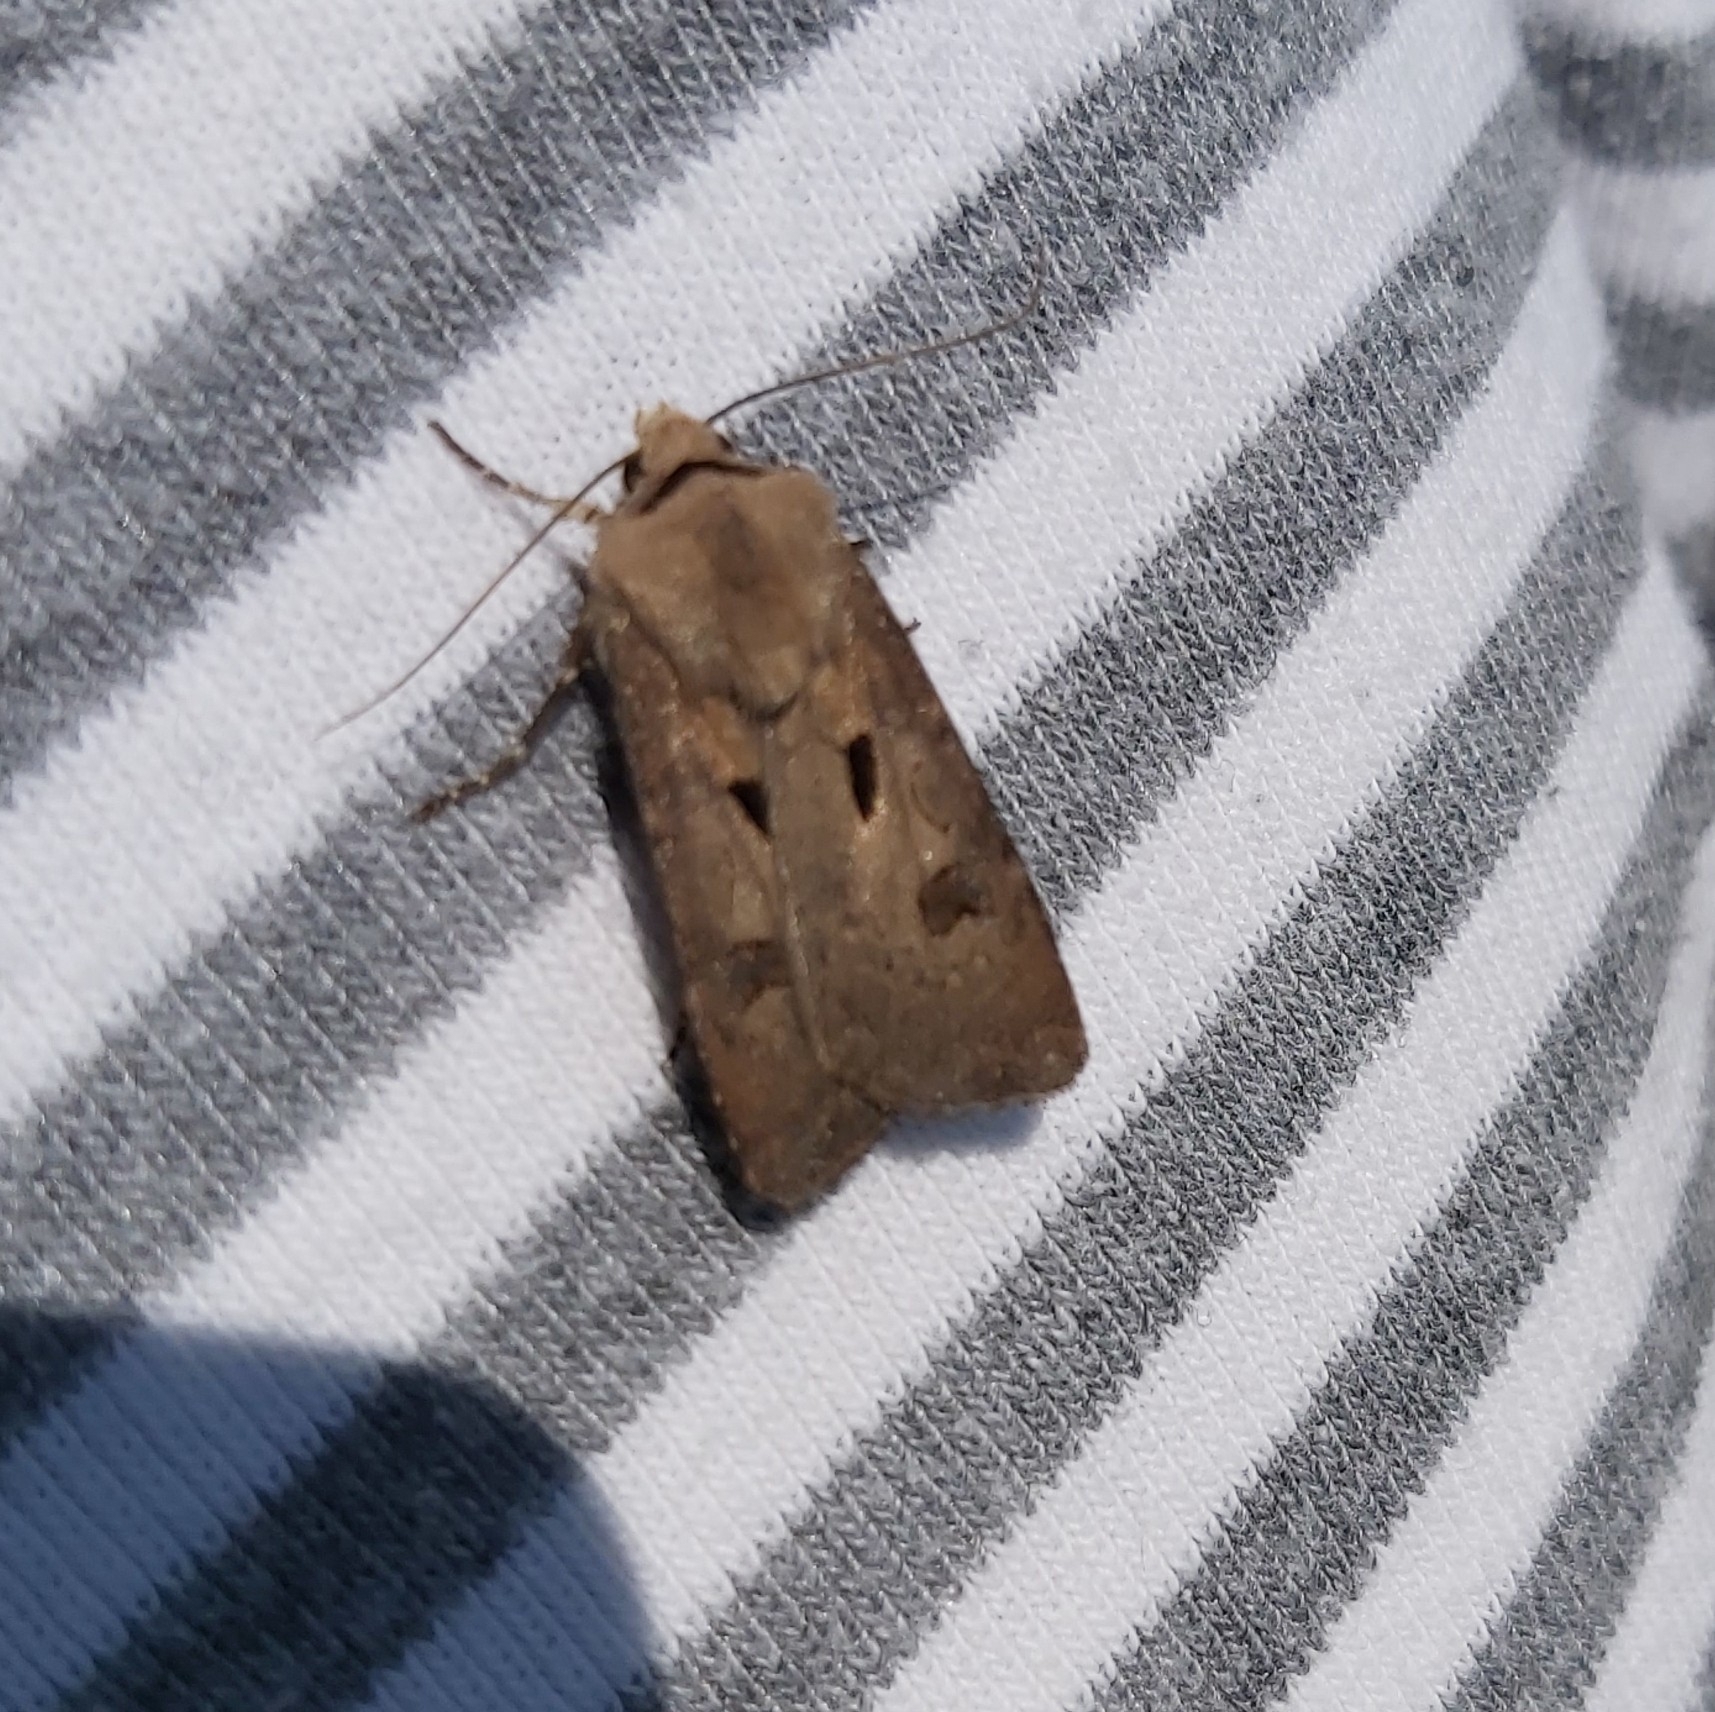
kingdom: Animalia
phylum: Arthropoda
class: Insecta
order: Lepidoptera
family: Noctuidae
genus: Agrotis
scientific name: Agrotis exclamationis
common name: Heart and dart
